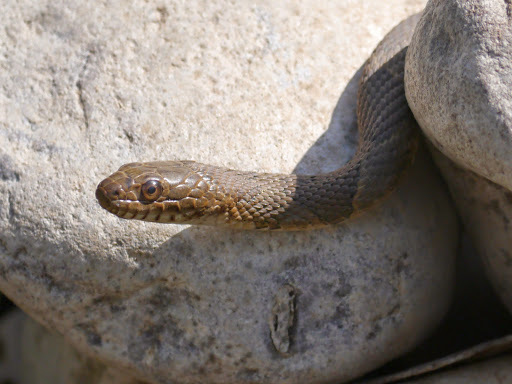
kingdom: Animalia
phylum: Chordata
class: Squamata
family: Colubridae
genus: Nerodia
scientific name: Nerodia sipedon
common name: Northern water snake
